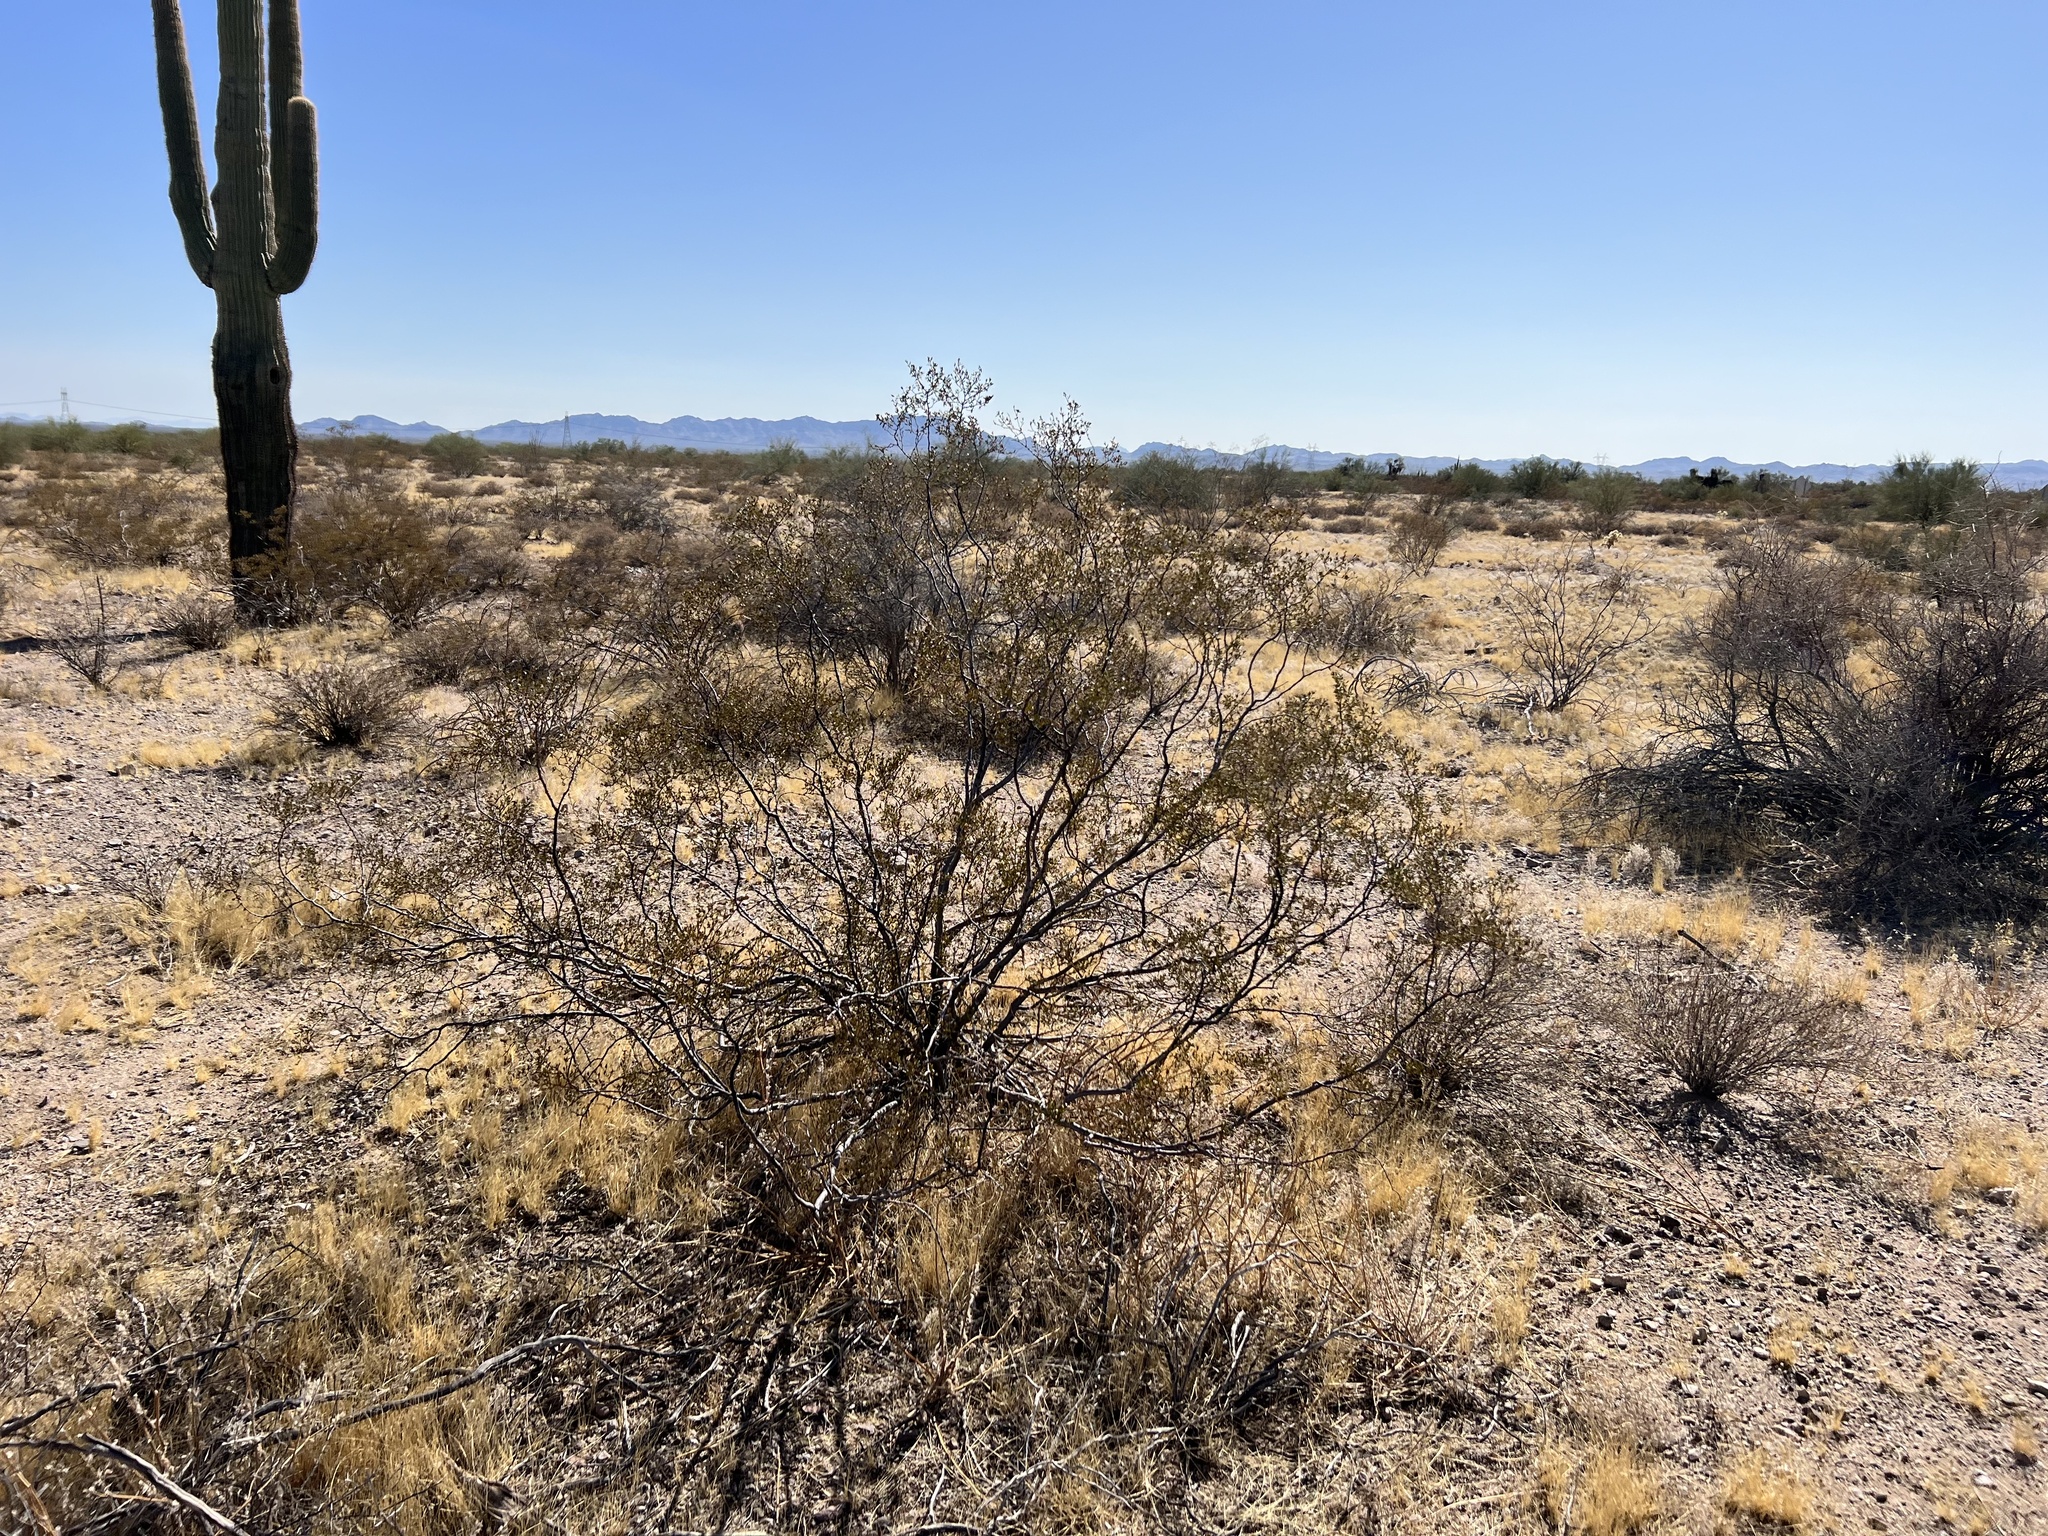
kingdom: Plantae
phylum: Tracheophyta
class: Magnoliopsida
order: Zygophyllales
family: Zygophyllaceae
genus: Larrea
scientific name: Larrea tridentata
